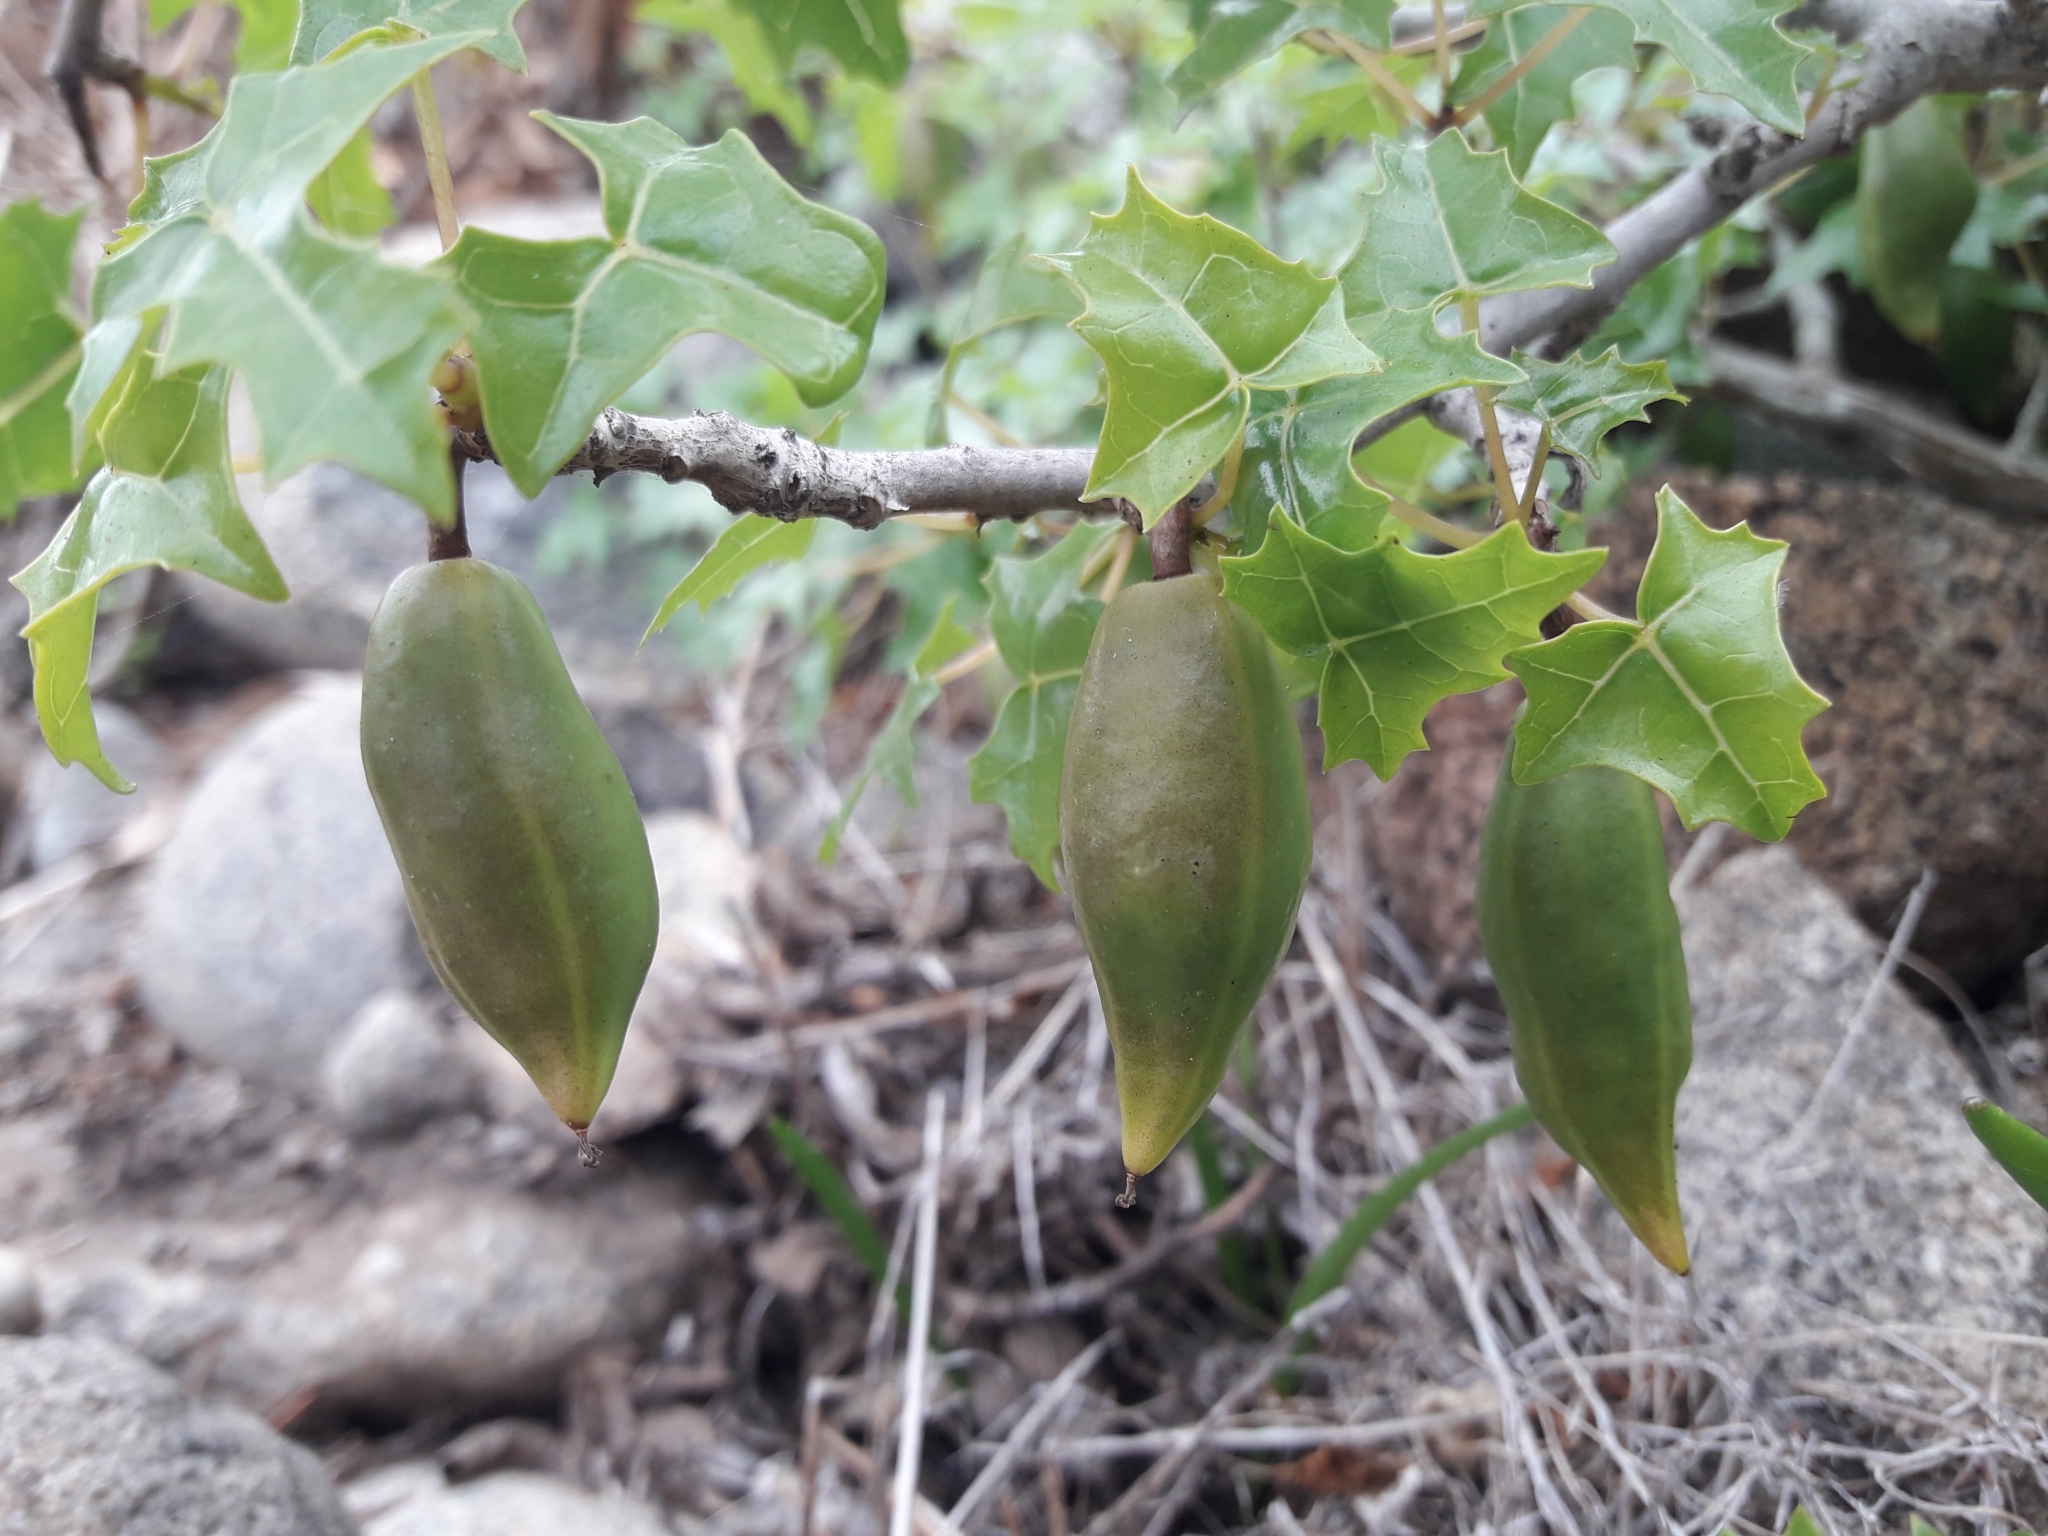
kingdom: Plantae
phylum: Tracheophyta
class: Magnoliopsida
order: Brassicales
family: Caricaceae
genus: Vasconcellea
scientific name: Vasconcellea chilensis
